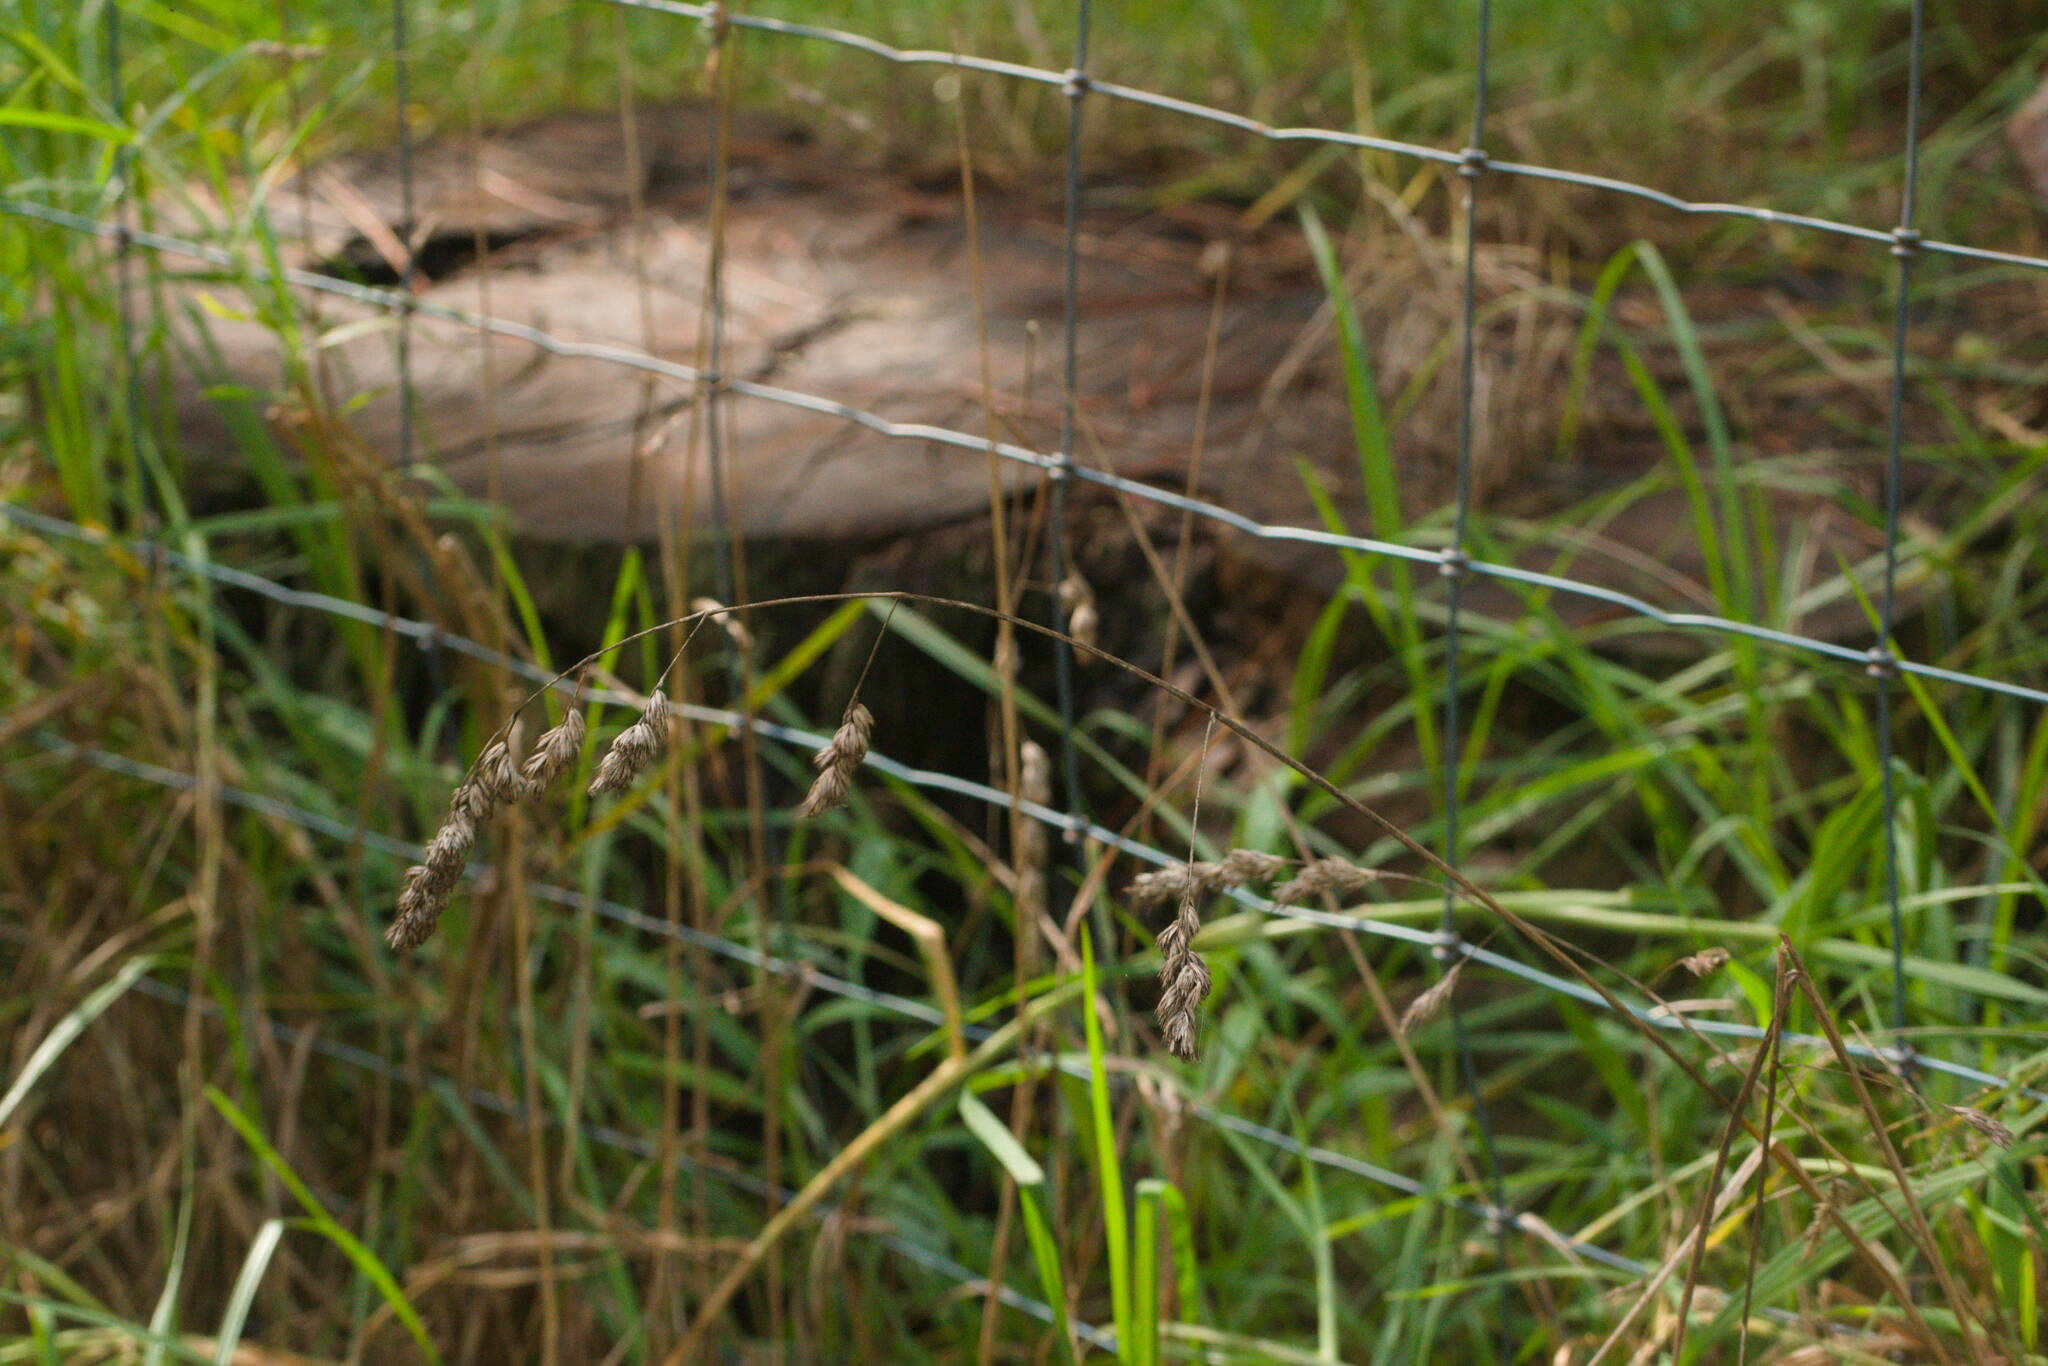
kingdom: Plantae
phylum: Tracheophyta
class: Liliopsida
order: Poales
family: Poaceae
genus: Dactylis
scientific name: Dactylis glomerata
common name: Orchardgrass
